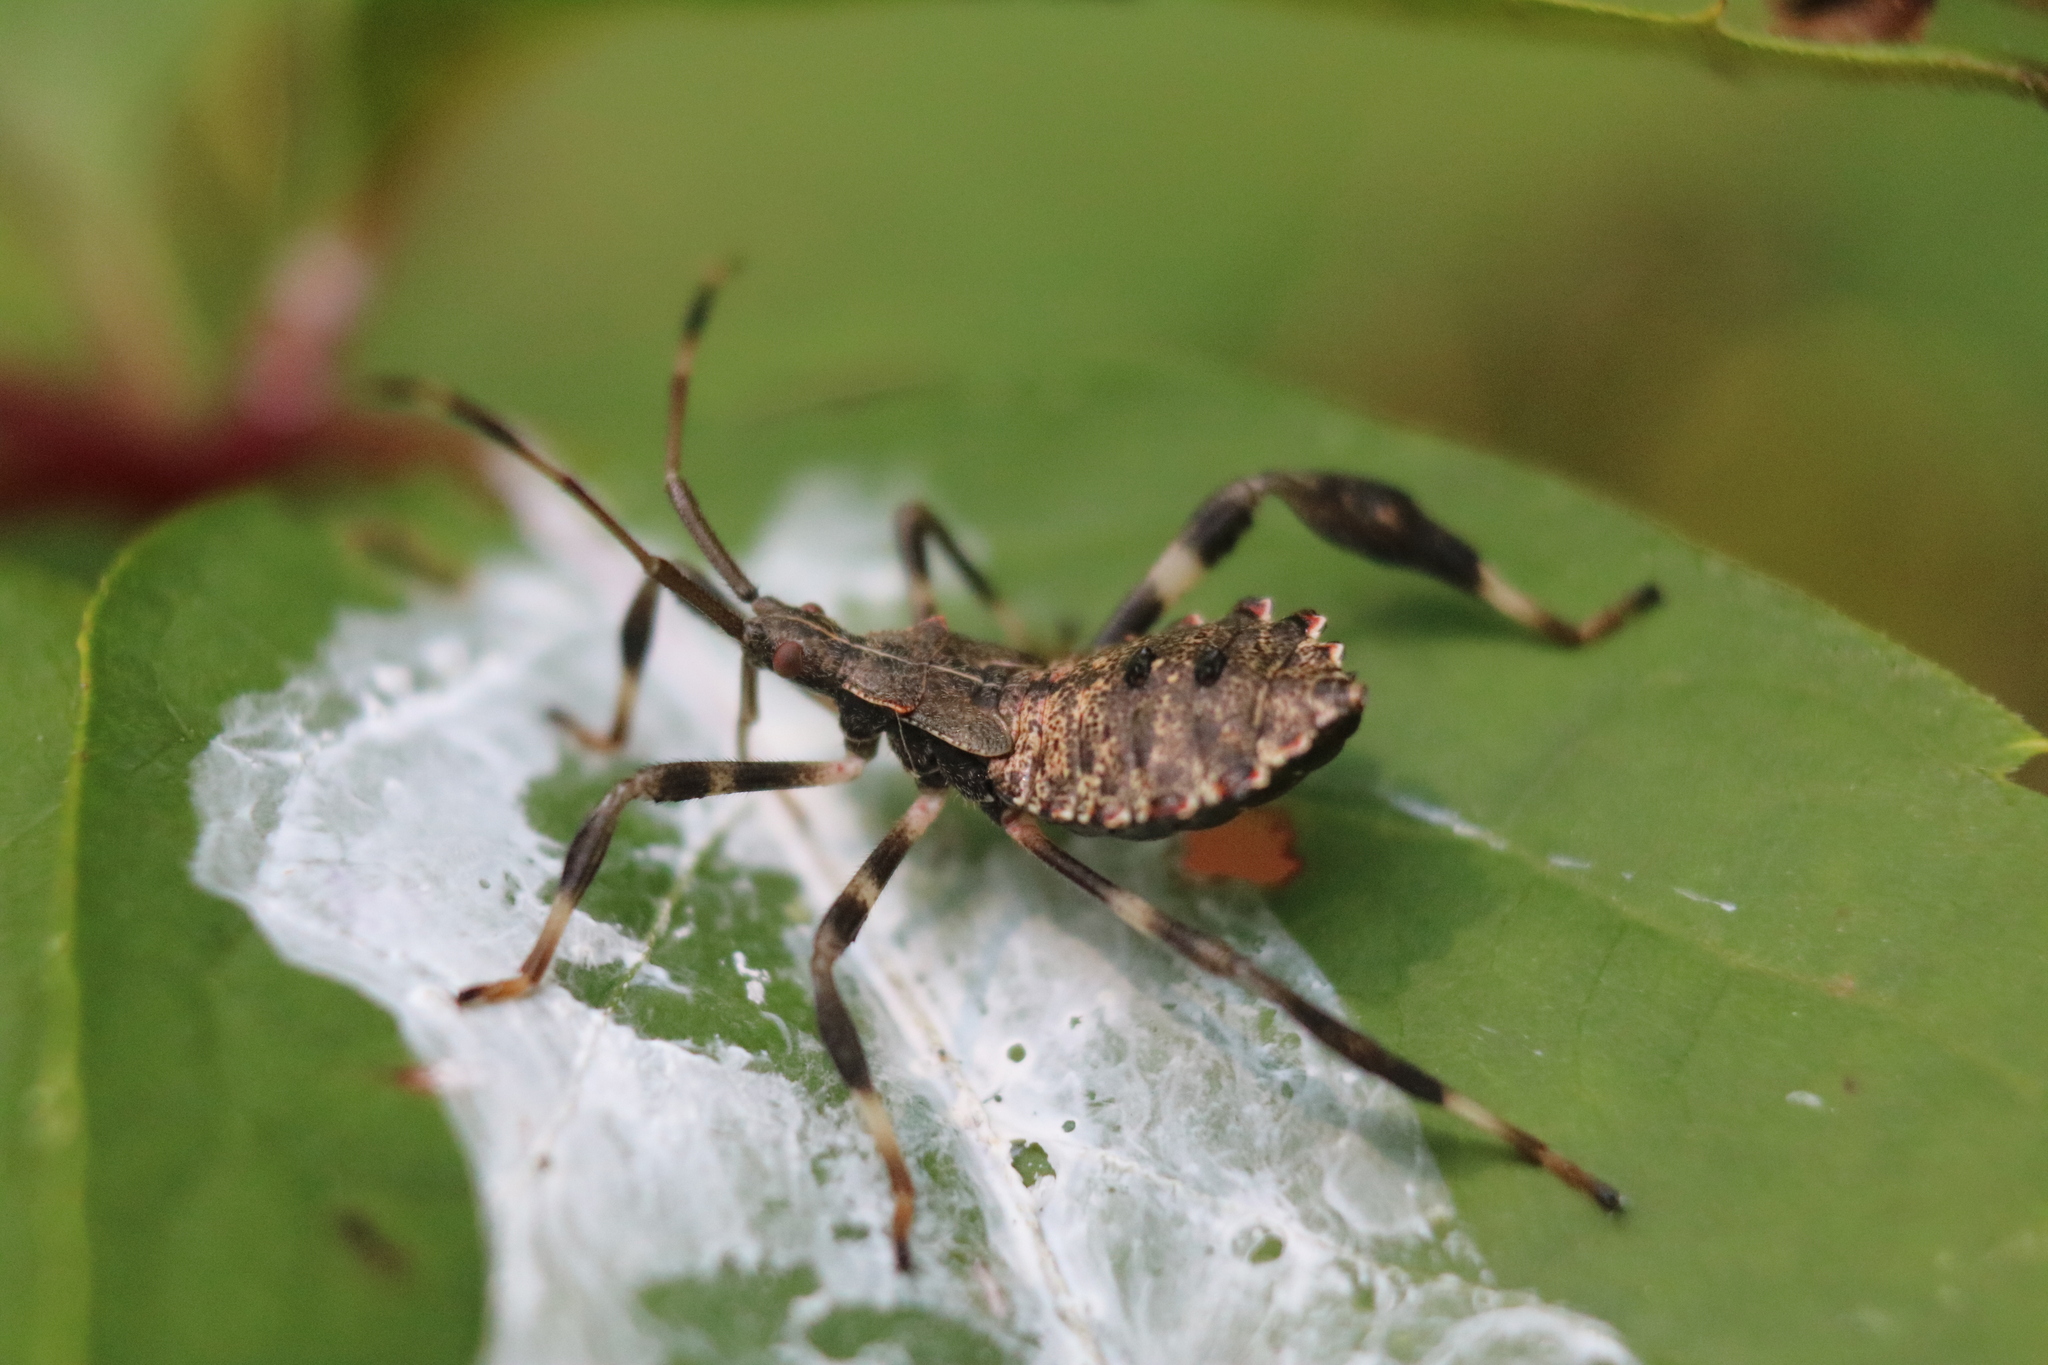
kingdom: Animalia
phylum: Arthropoda
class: Insecta
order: Hemiptera
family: Coreidae
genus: Acanthocephala
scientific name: Acanthocephala terminalis
